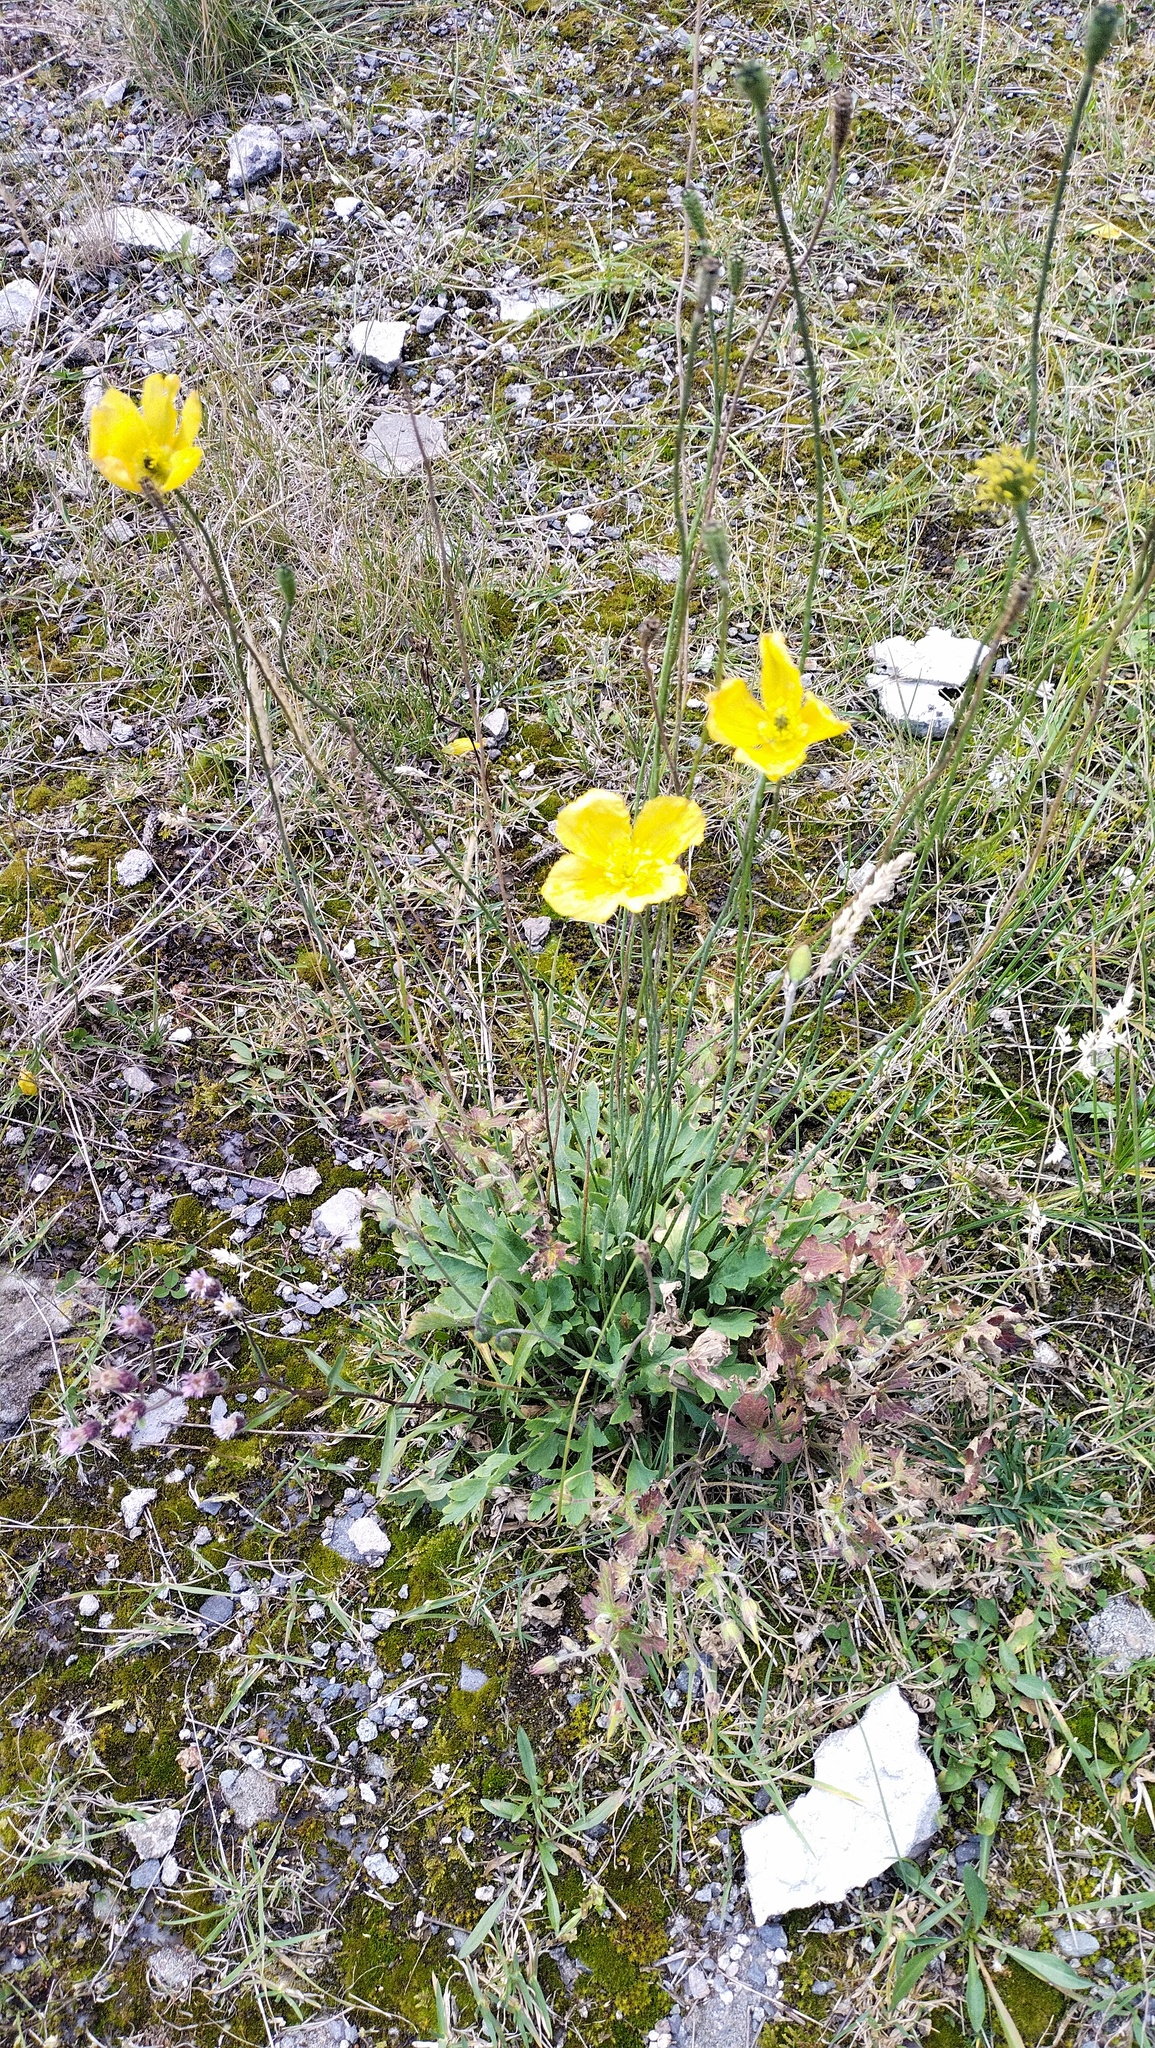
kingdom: Plantae
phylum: Tracheophyta
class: Magnoliopsida
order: Ranunculales
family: Papaveraceae
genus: Oreomecon
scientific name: Oreomecon
